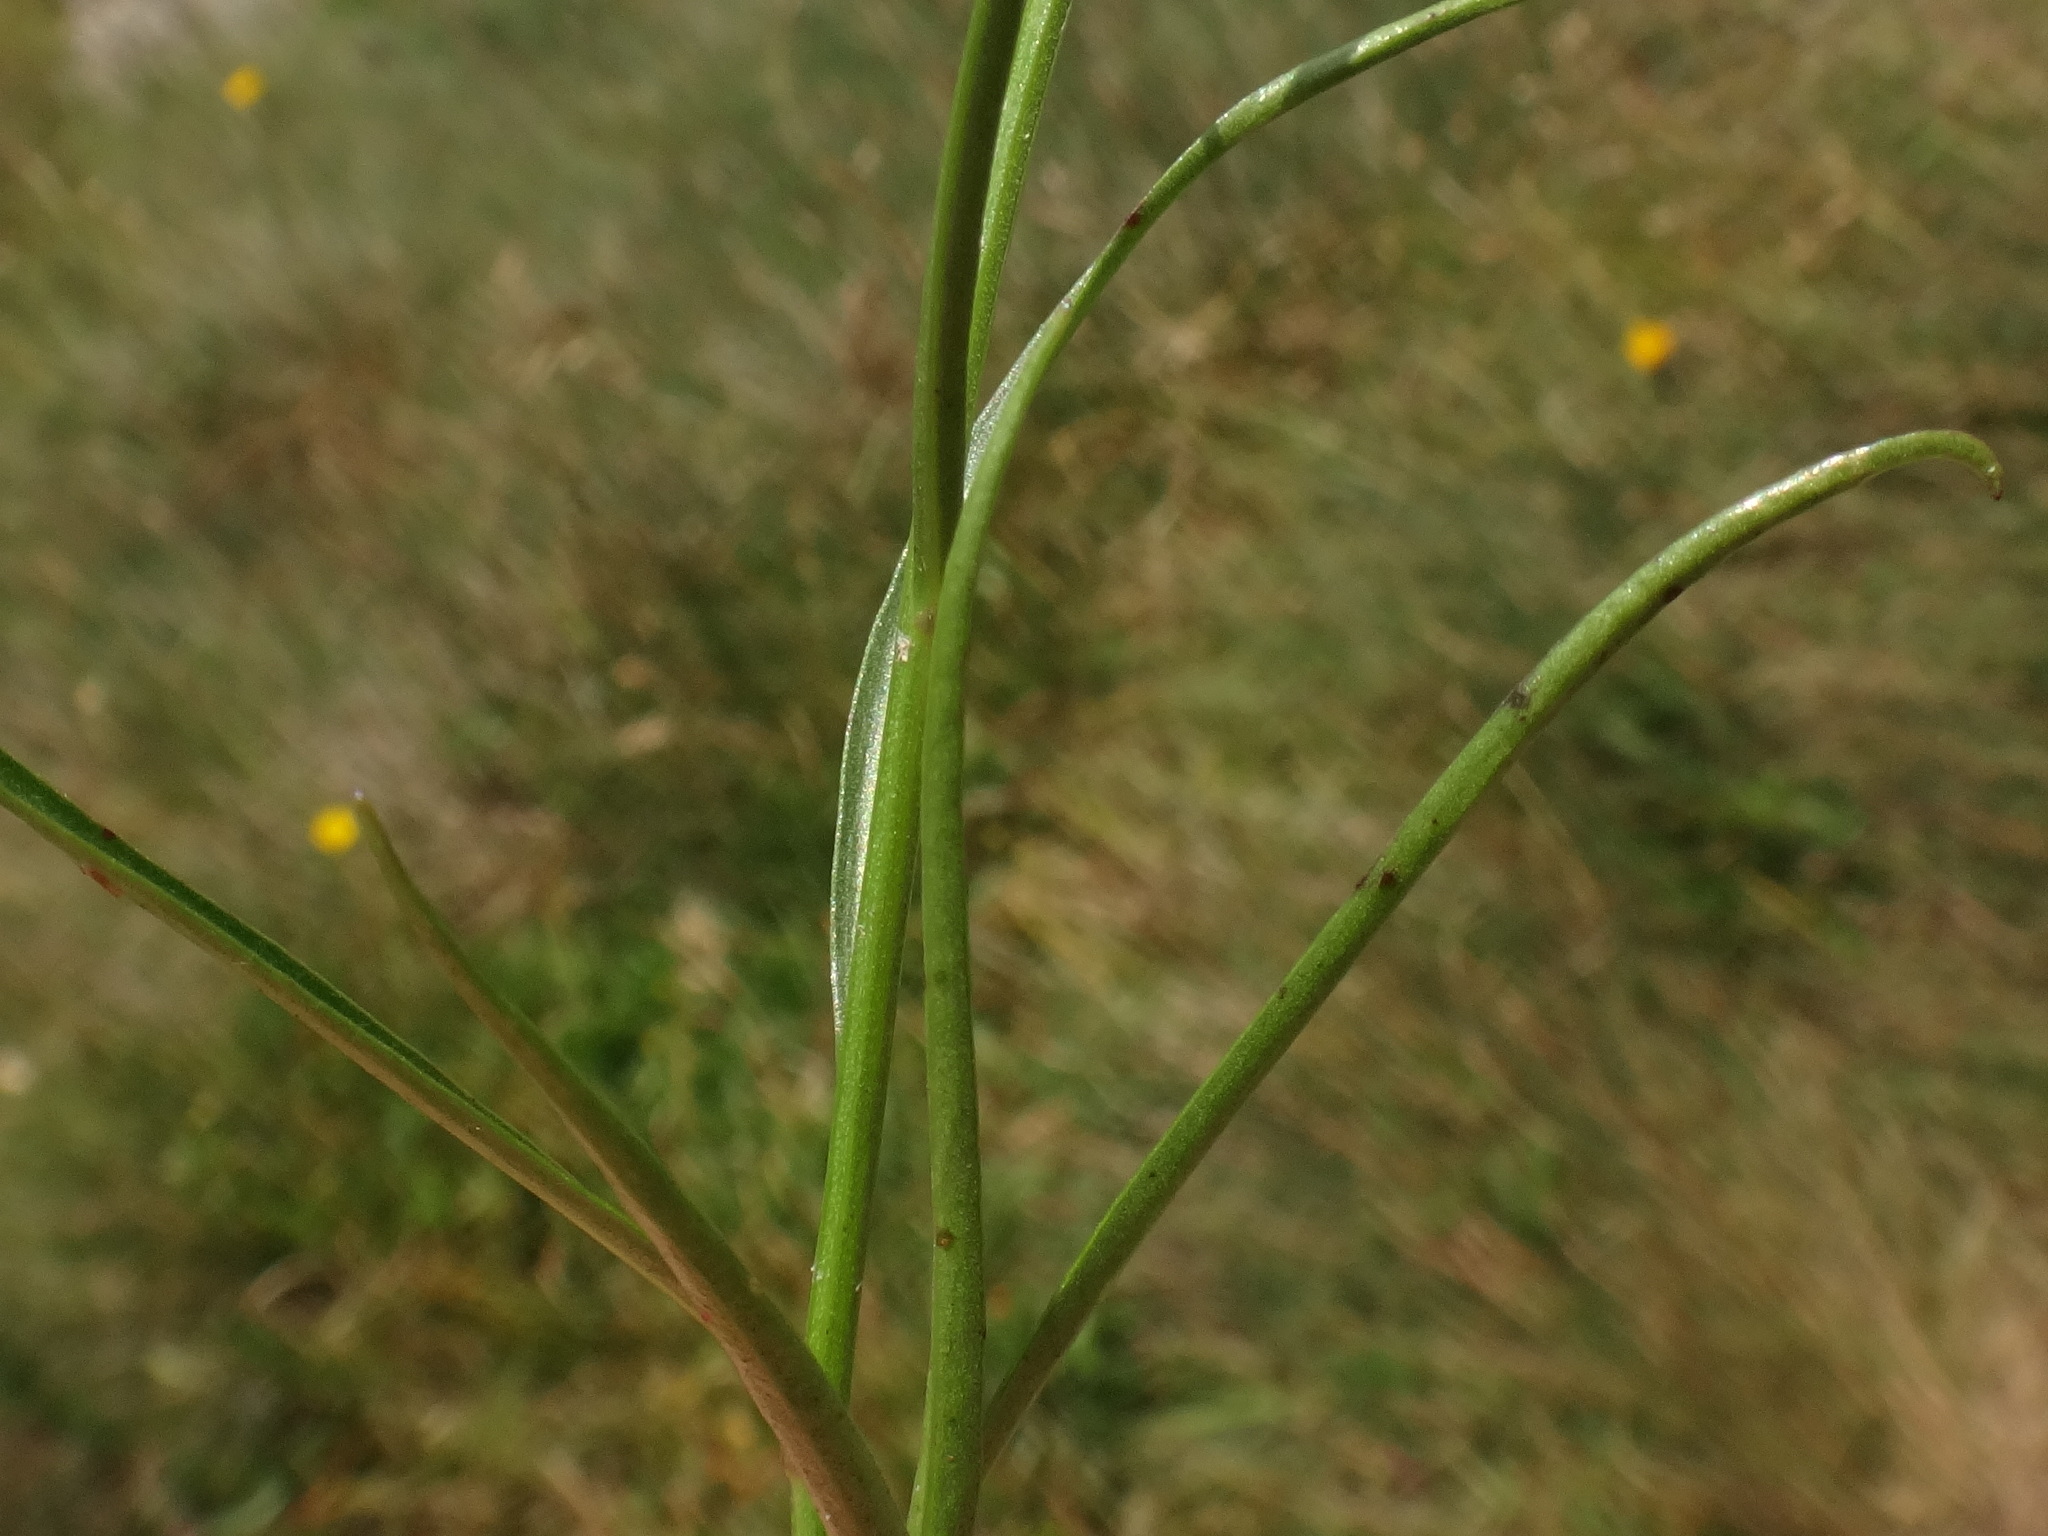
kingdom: Plantae
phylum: Tracheophyta
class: Magnoliopsida
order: Asterales
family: Campanulaceae
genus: Campanula
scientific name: Campanula scheuchzeri
